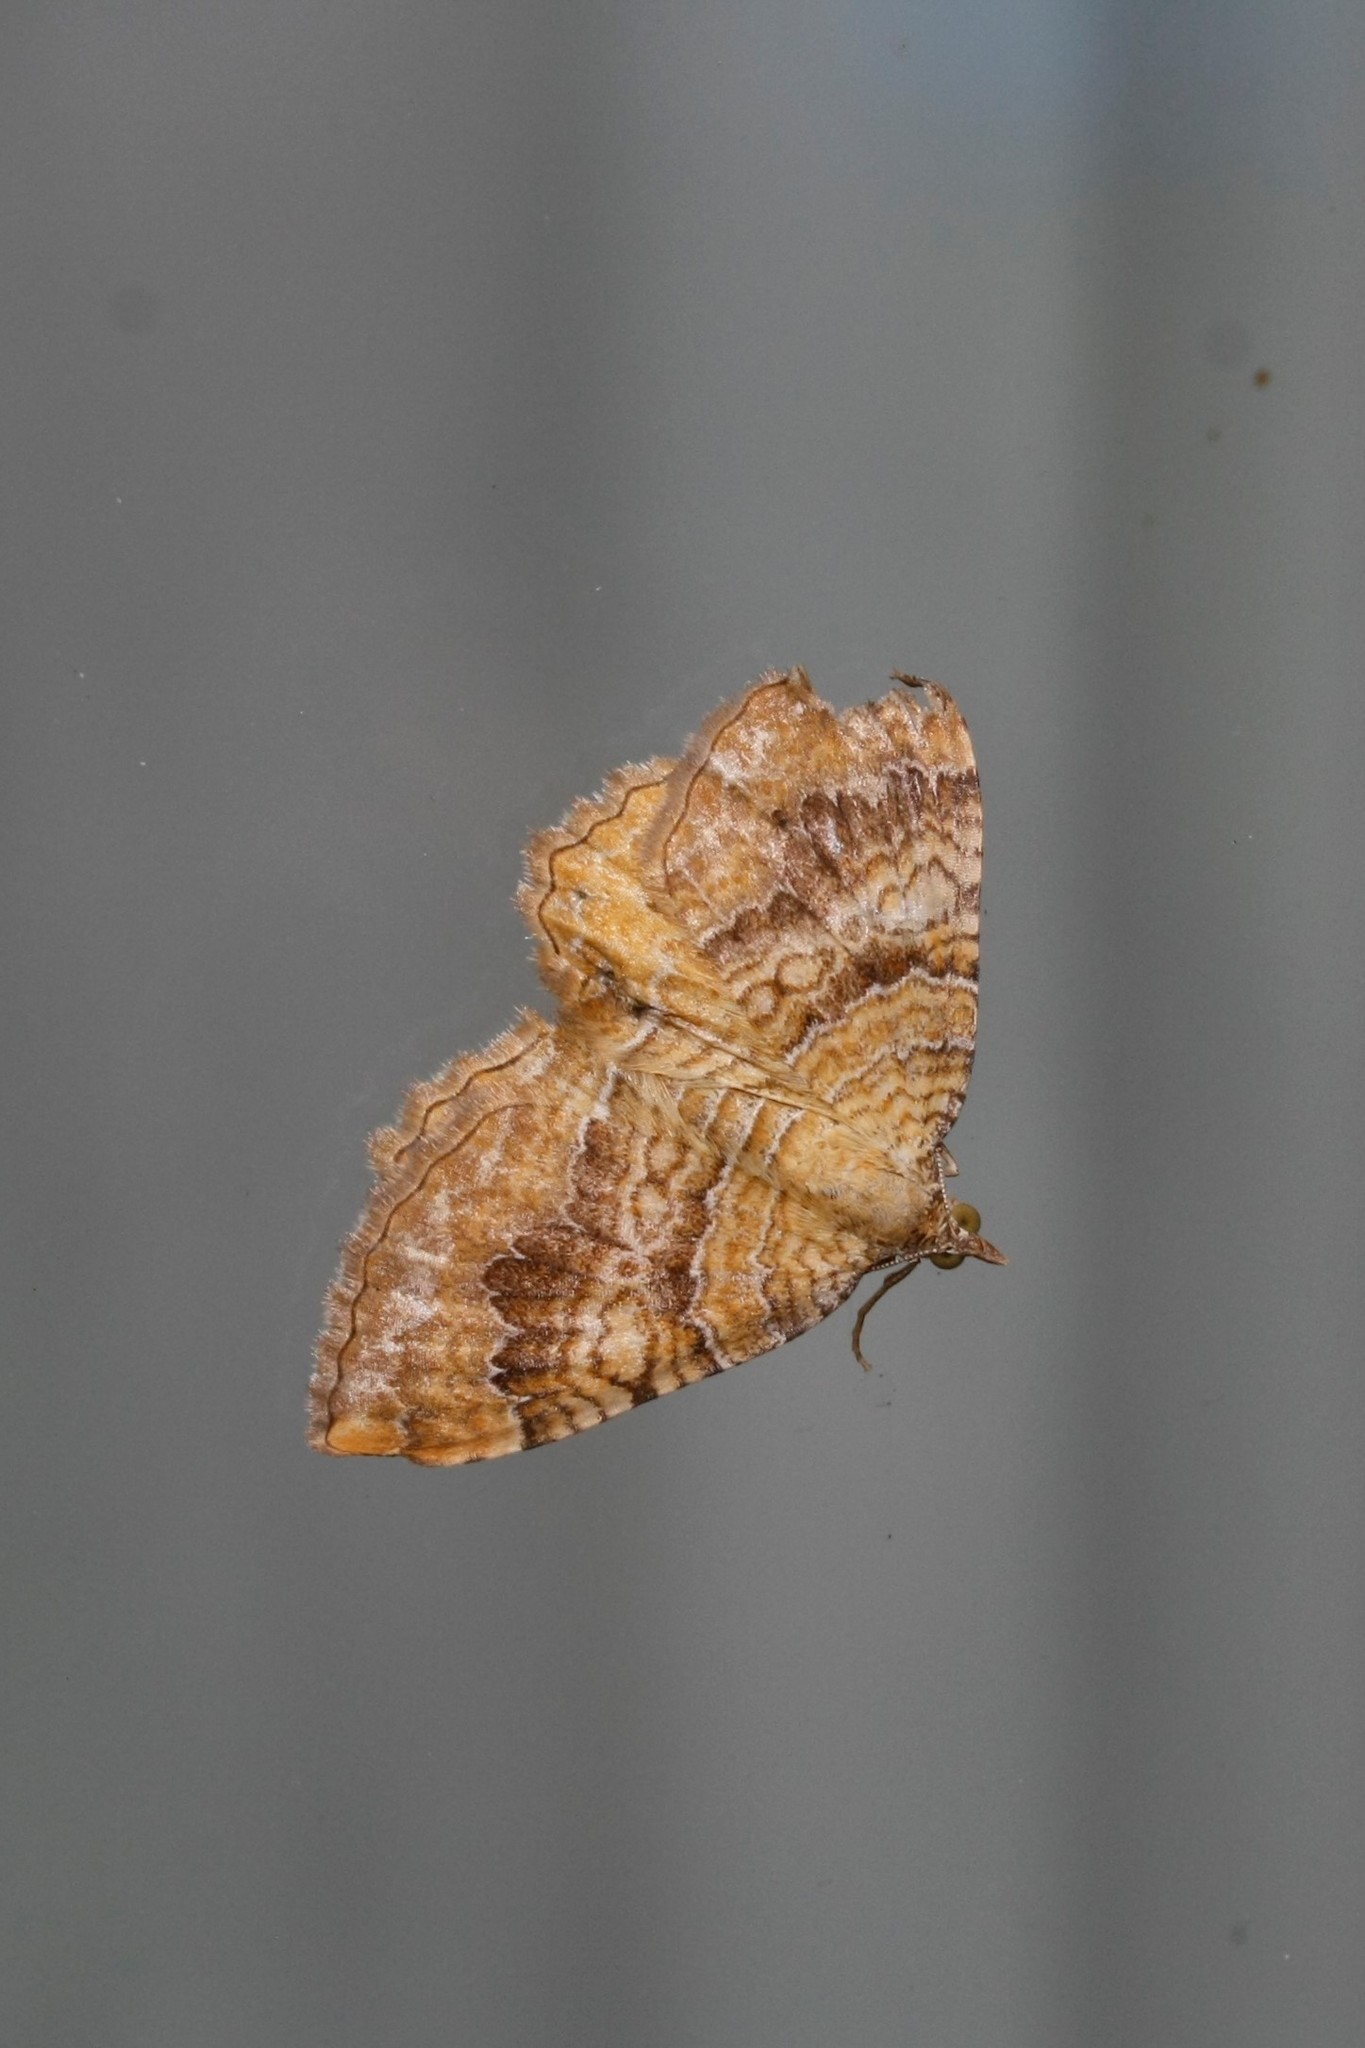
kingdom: Animalia
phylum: Arthropoda
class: Insecta
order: Lepidoptera
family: Geometridae
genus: Camptogramma
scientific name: Camptogramma bilineata
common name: Yellow shell
